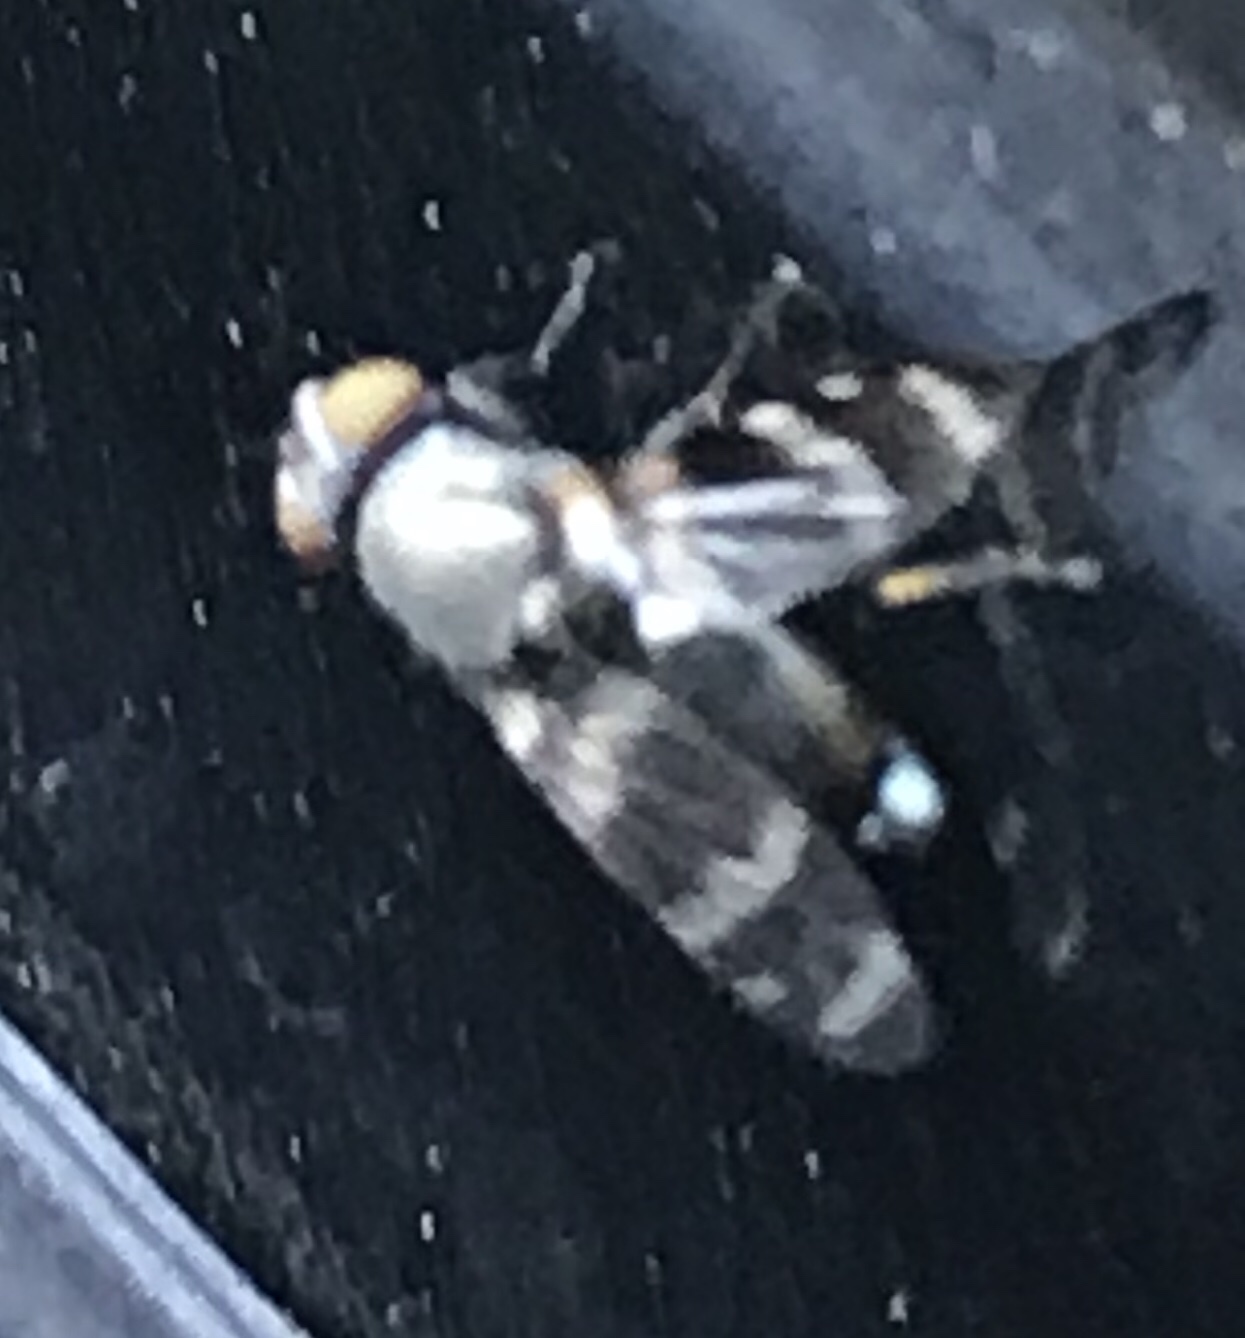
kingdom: Animalia
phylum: Arthropoda
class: Insecta
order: Diptera
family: Ulidiidae
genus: Euxesta
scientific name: Euxesta eluta
